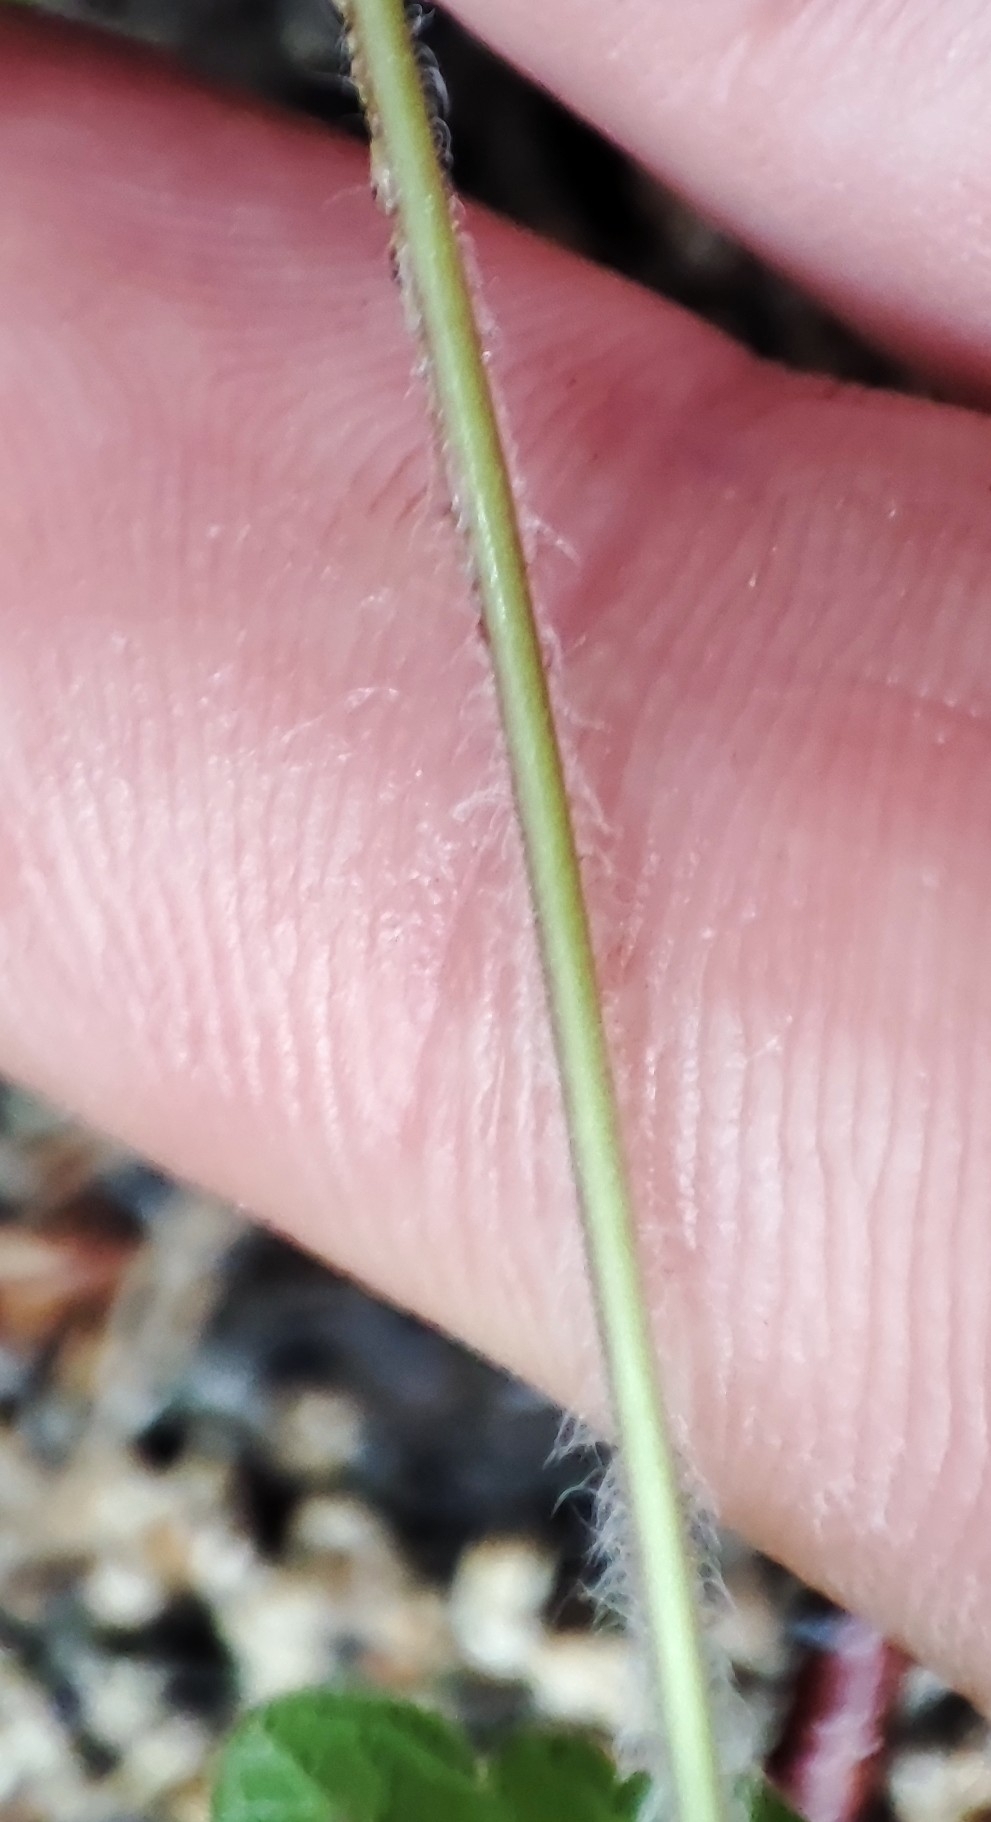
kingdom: Plantae
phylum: Tracheophyta
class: Magnoliopsida
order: Lamiales
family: Plantaginaceae
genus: Veronica
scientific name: Veronica chamaedrys
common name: Germander speedwell
